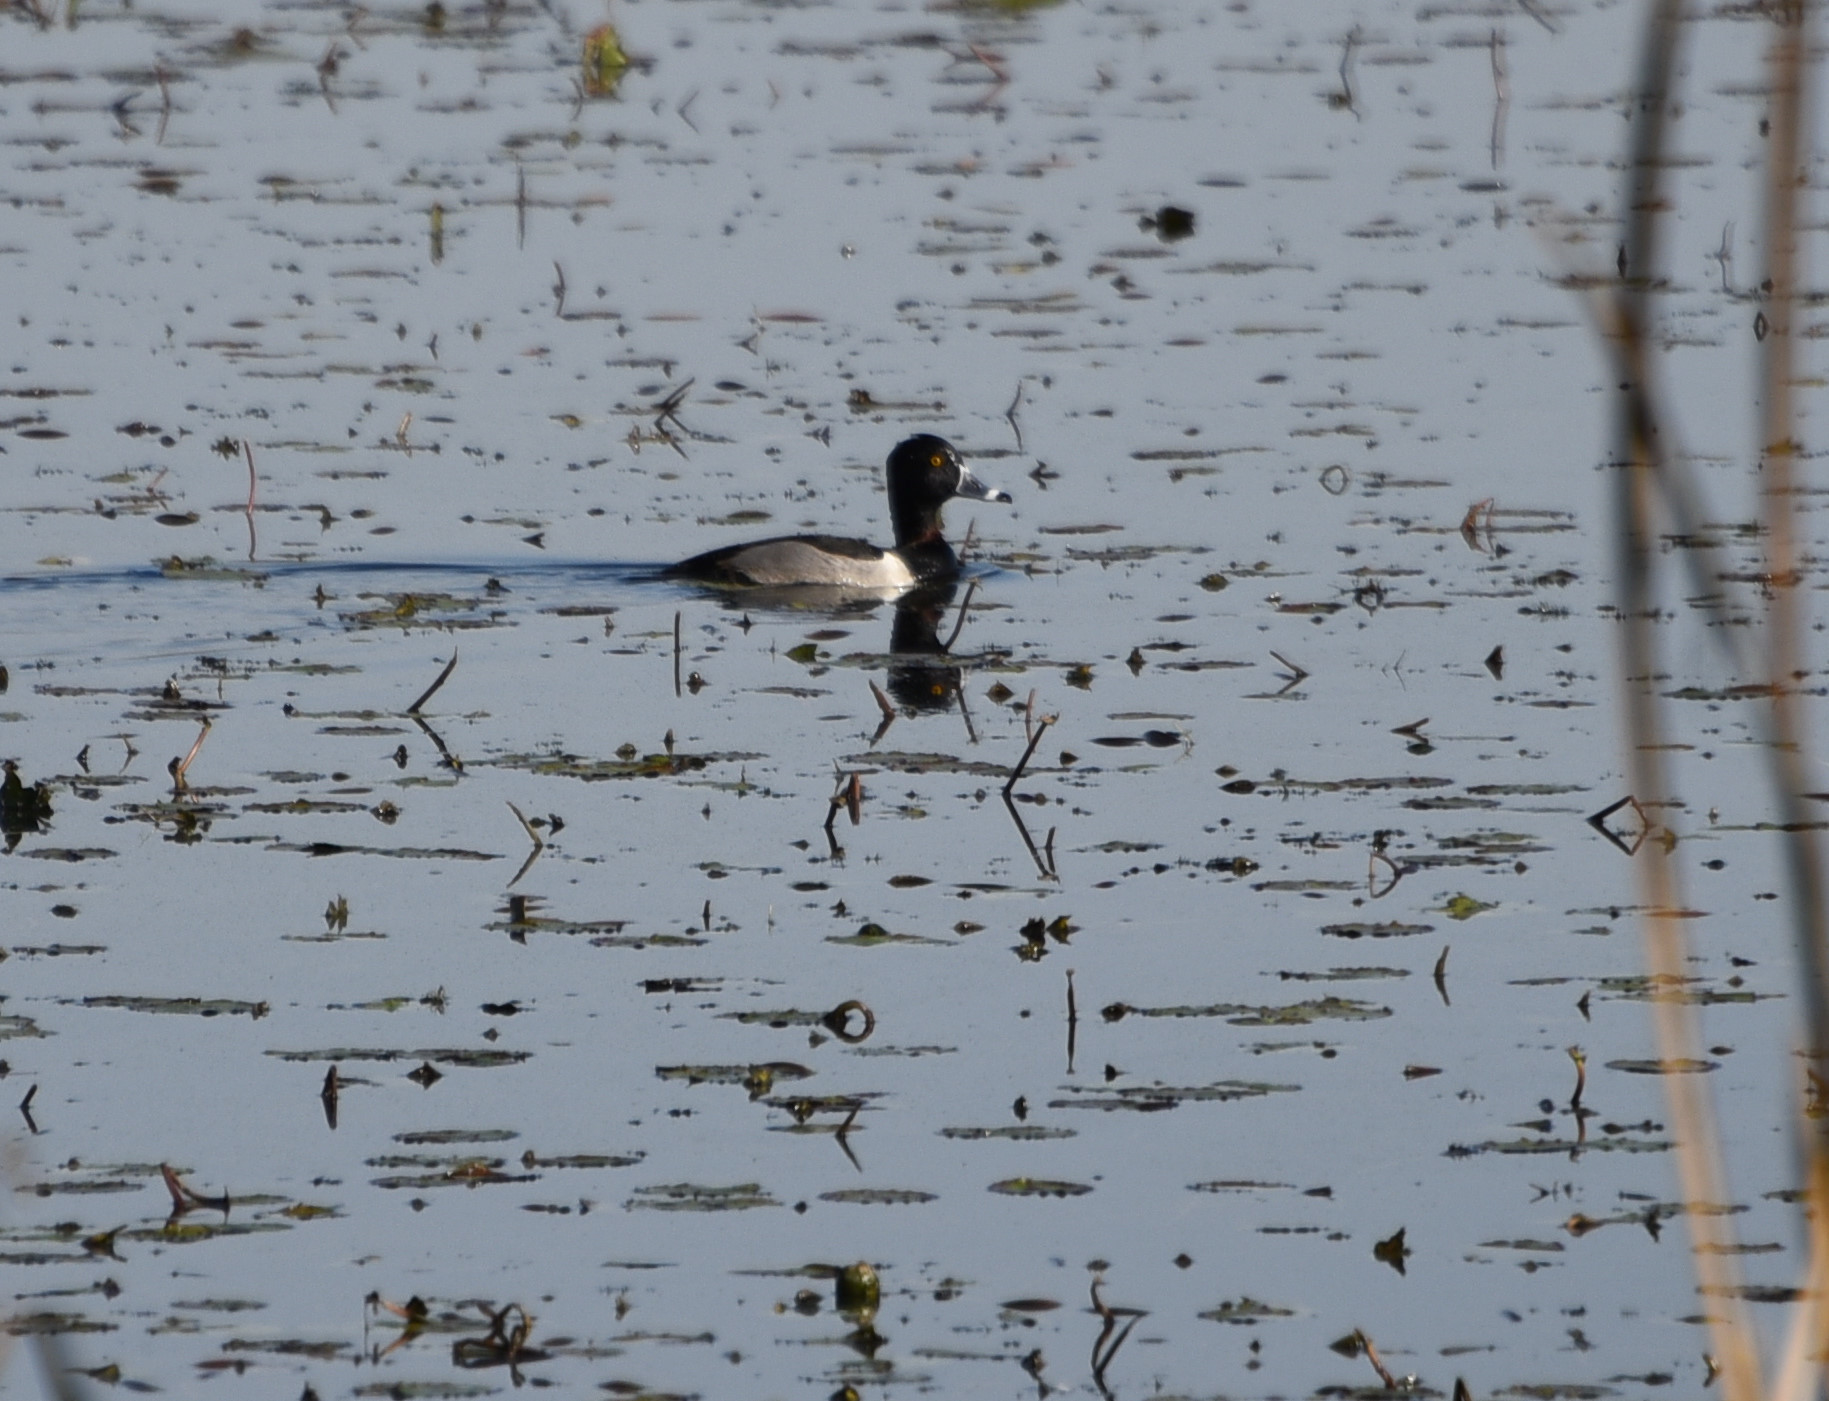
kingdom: Animalia
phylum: Chordata
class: Aves
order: Anseriformes
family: Anatidae
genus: Aythya
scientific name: Aythya collaris
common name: Ring-necked duck
